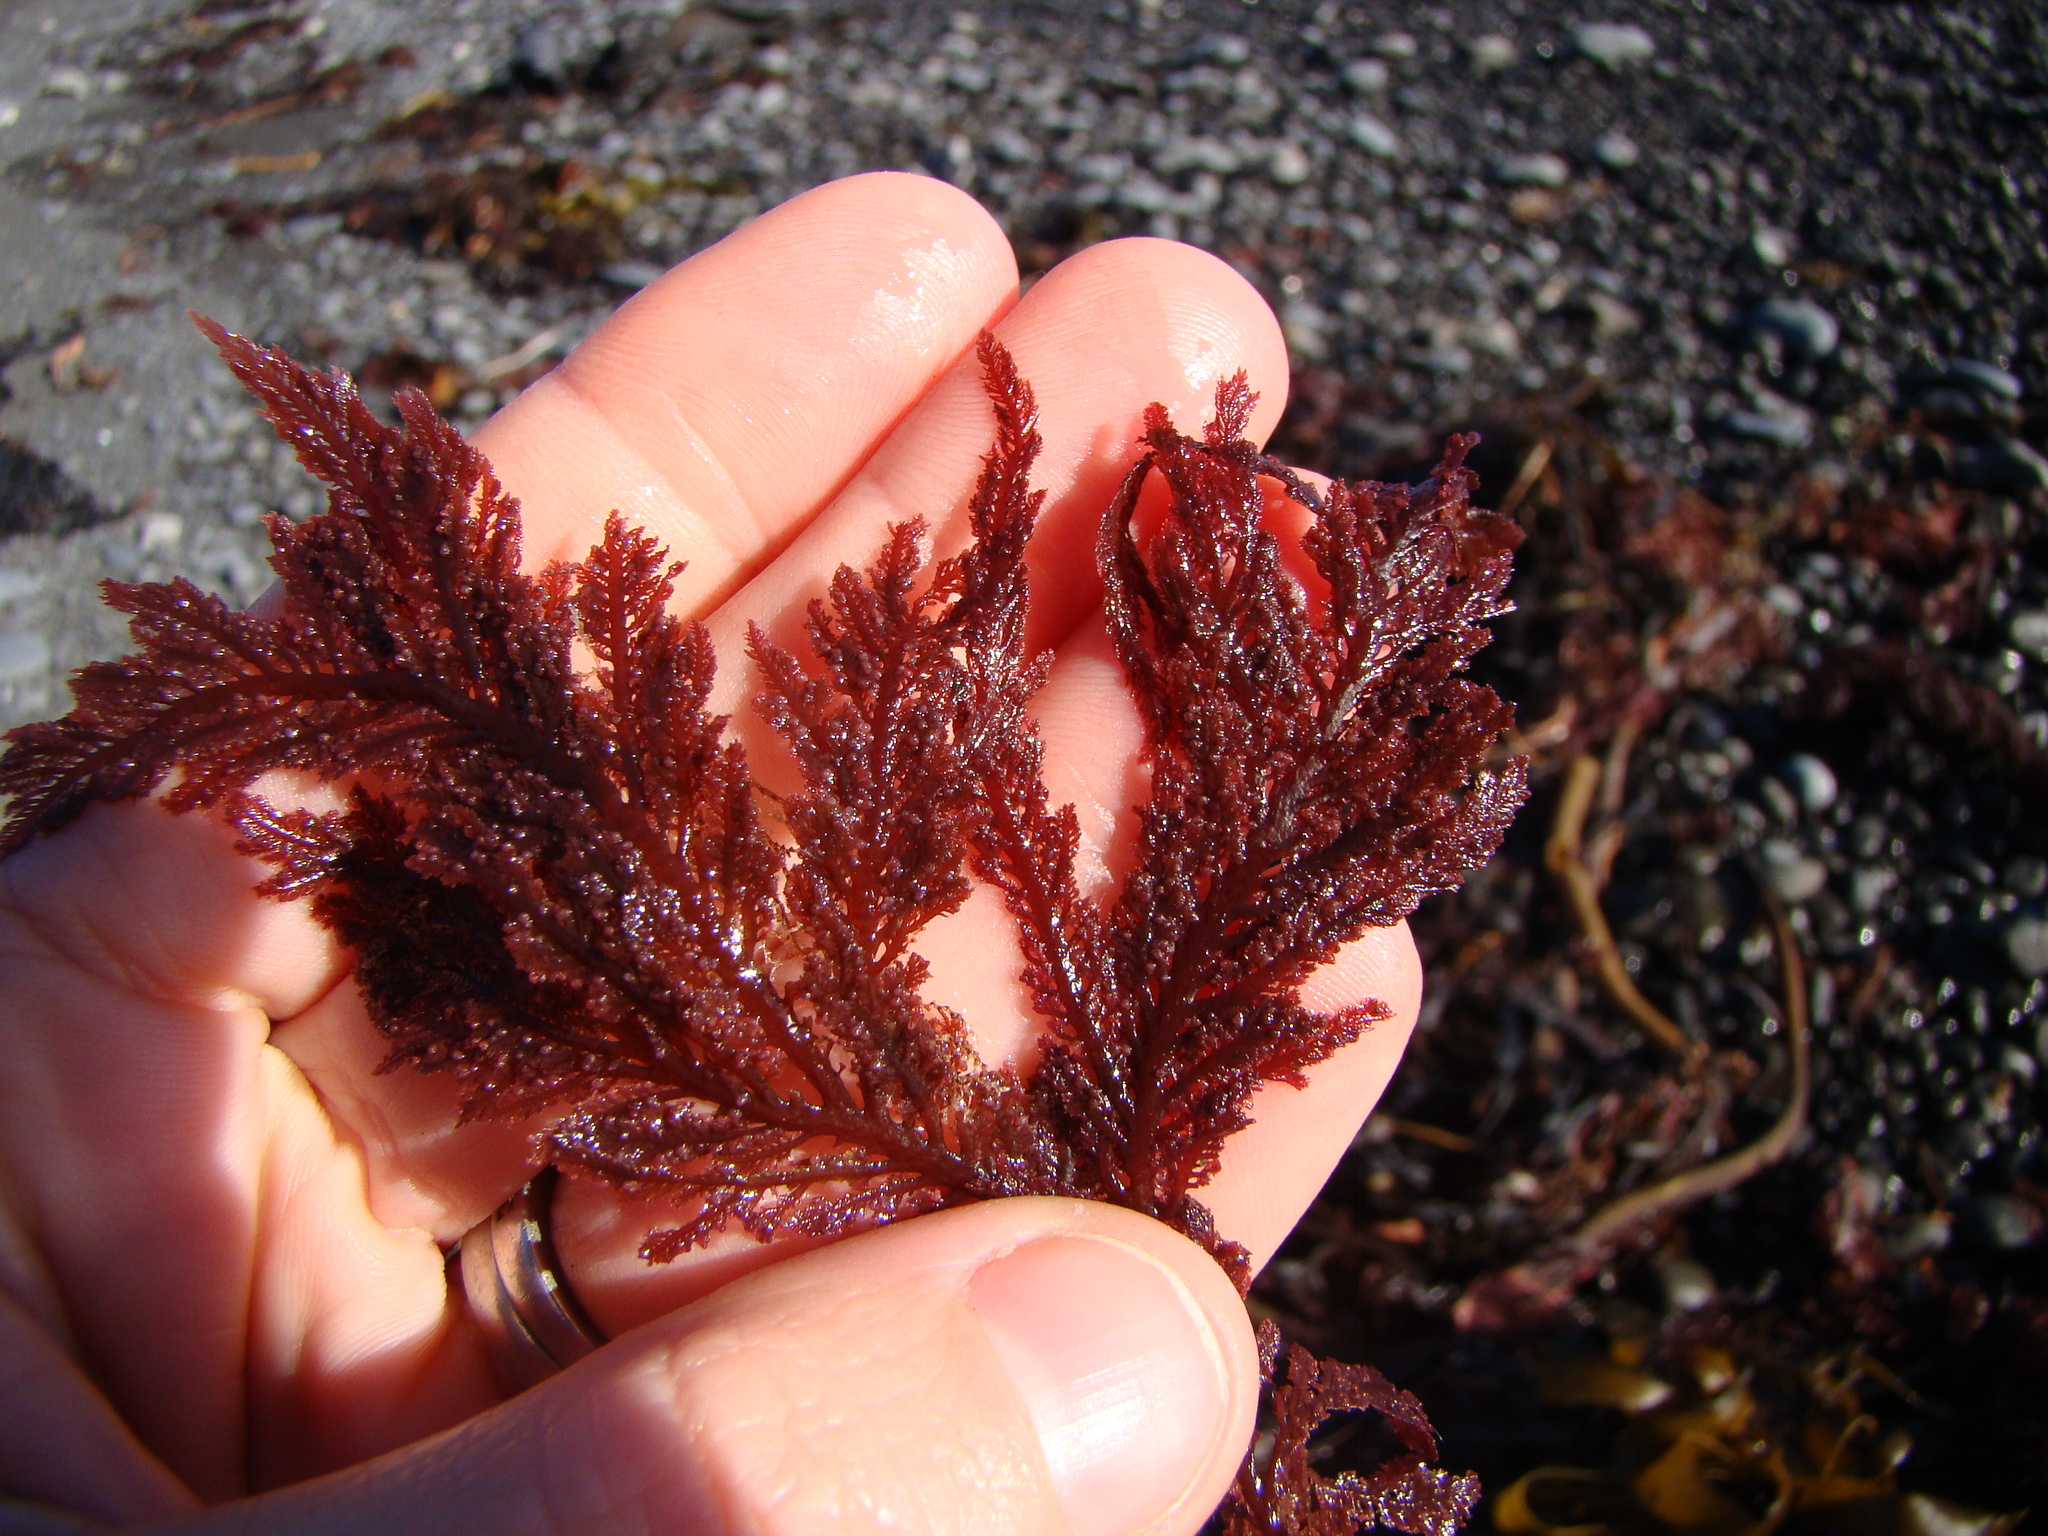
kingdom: Plantae
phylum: Rhodophyta
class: Florideophyceae
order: Ceramiales
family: Callithamniaceae
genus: Euptilota
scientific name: Euptilota formosissima
